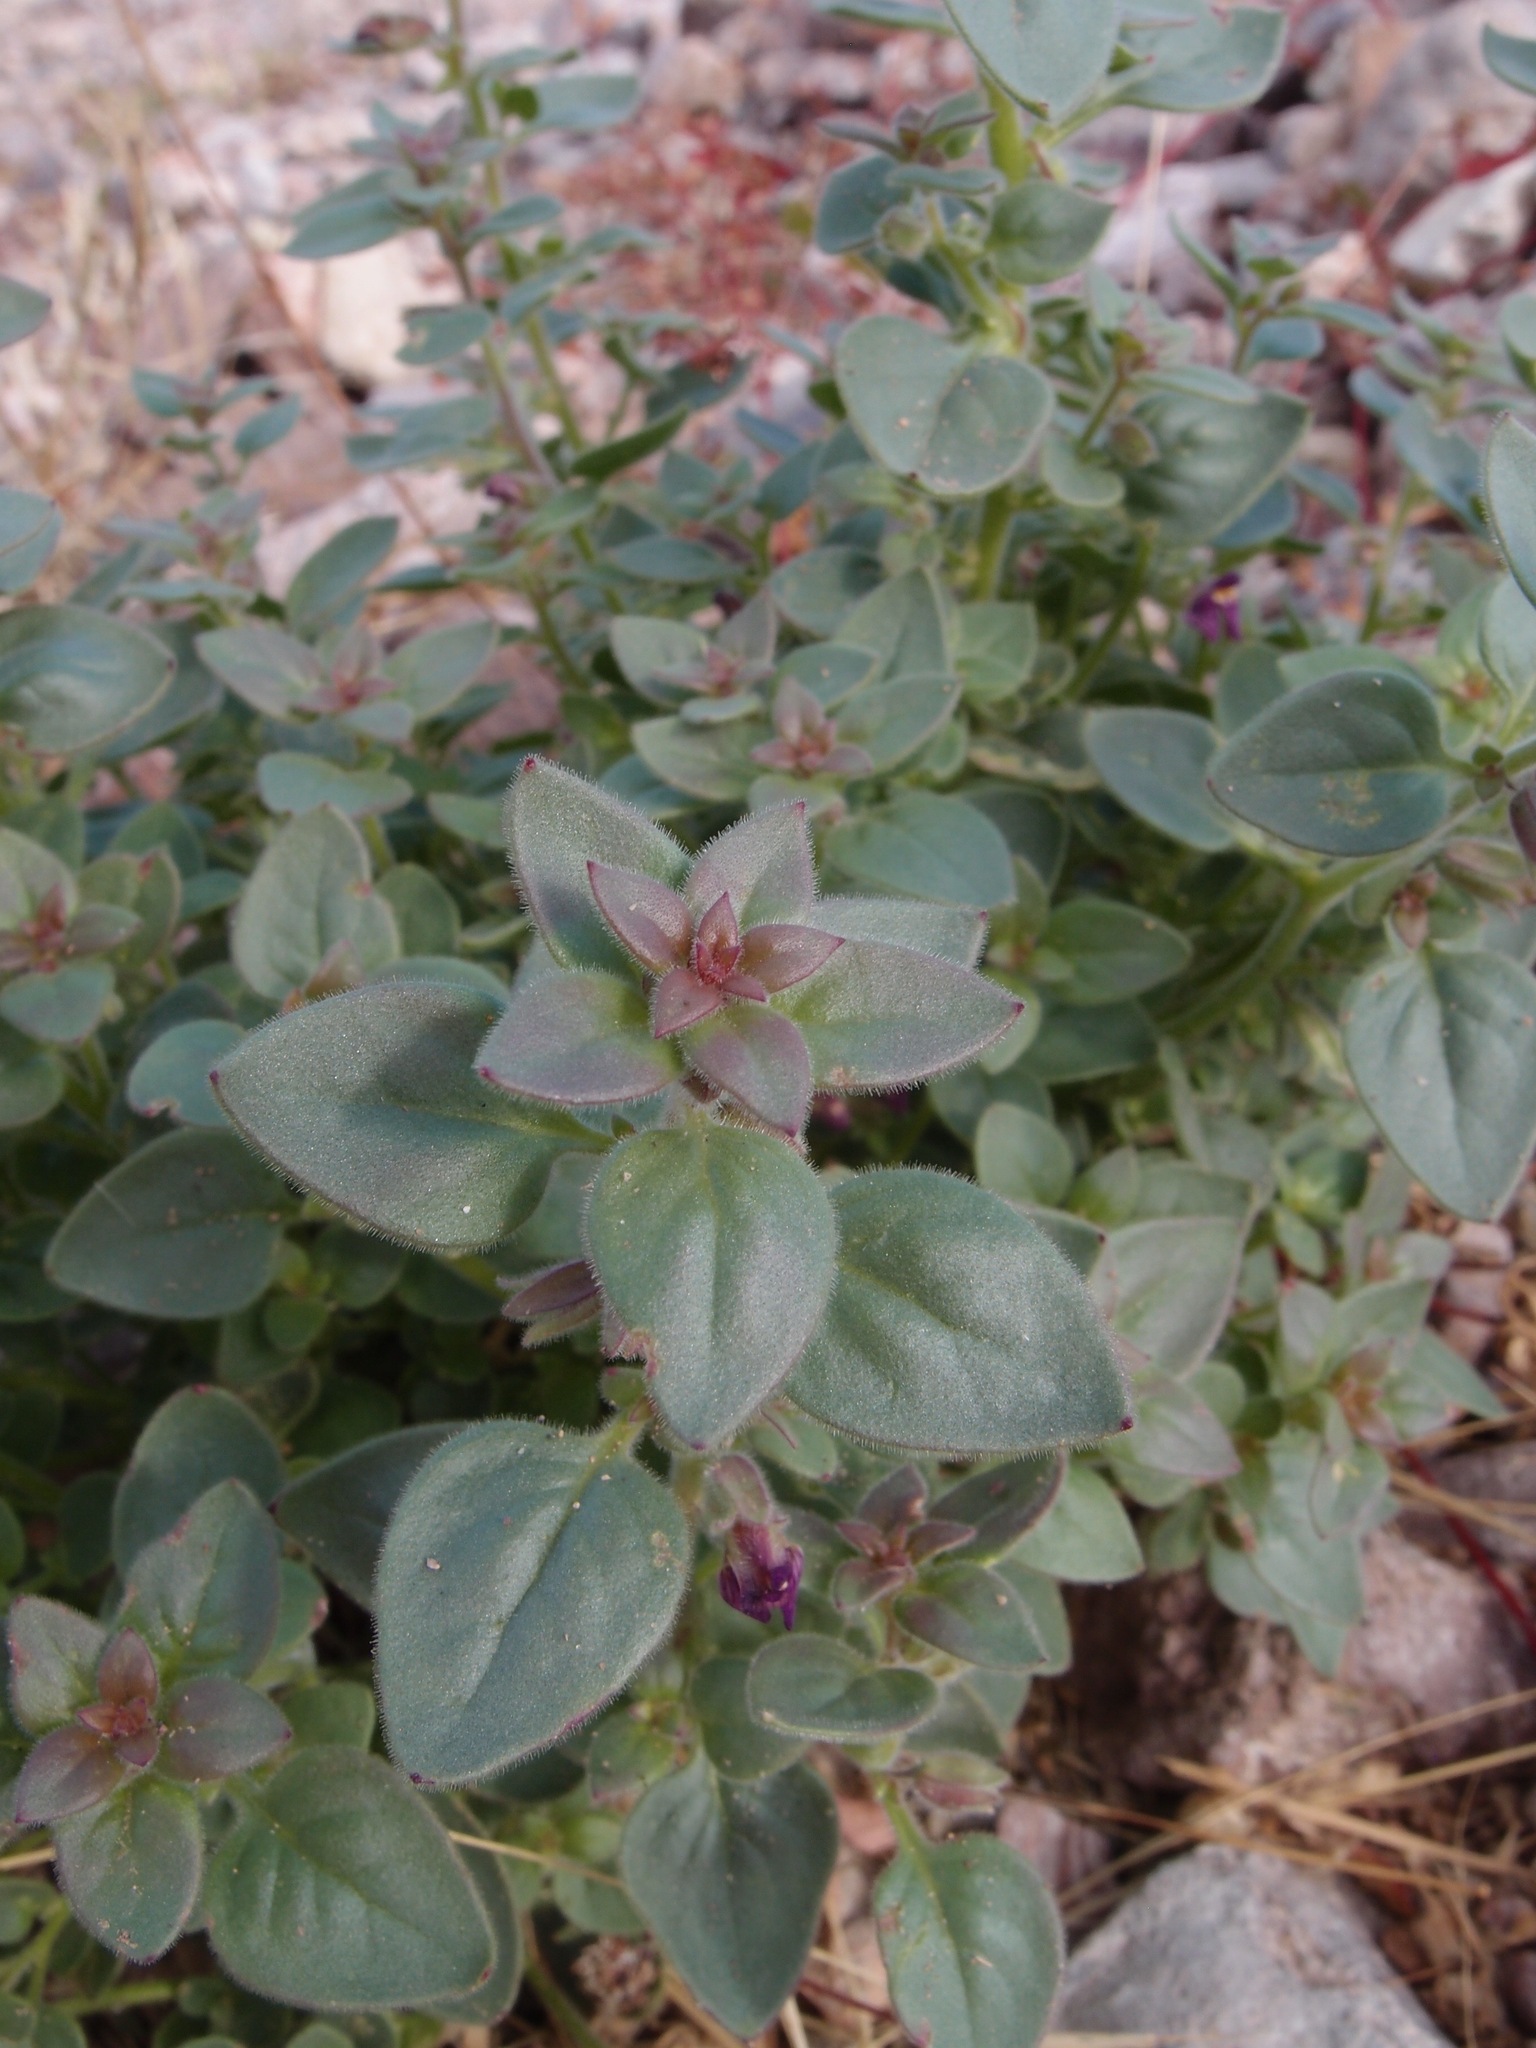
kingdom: Plantae
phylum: Tracheophyta
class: Magnoliopsida
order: Lamiales
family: Plantaginaceae
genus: Pseudorontium
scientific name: Pseudorontium cyathiferum
